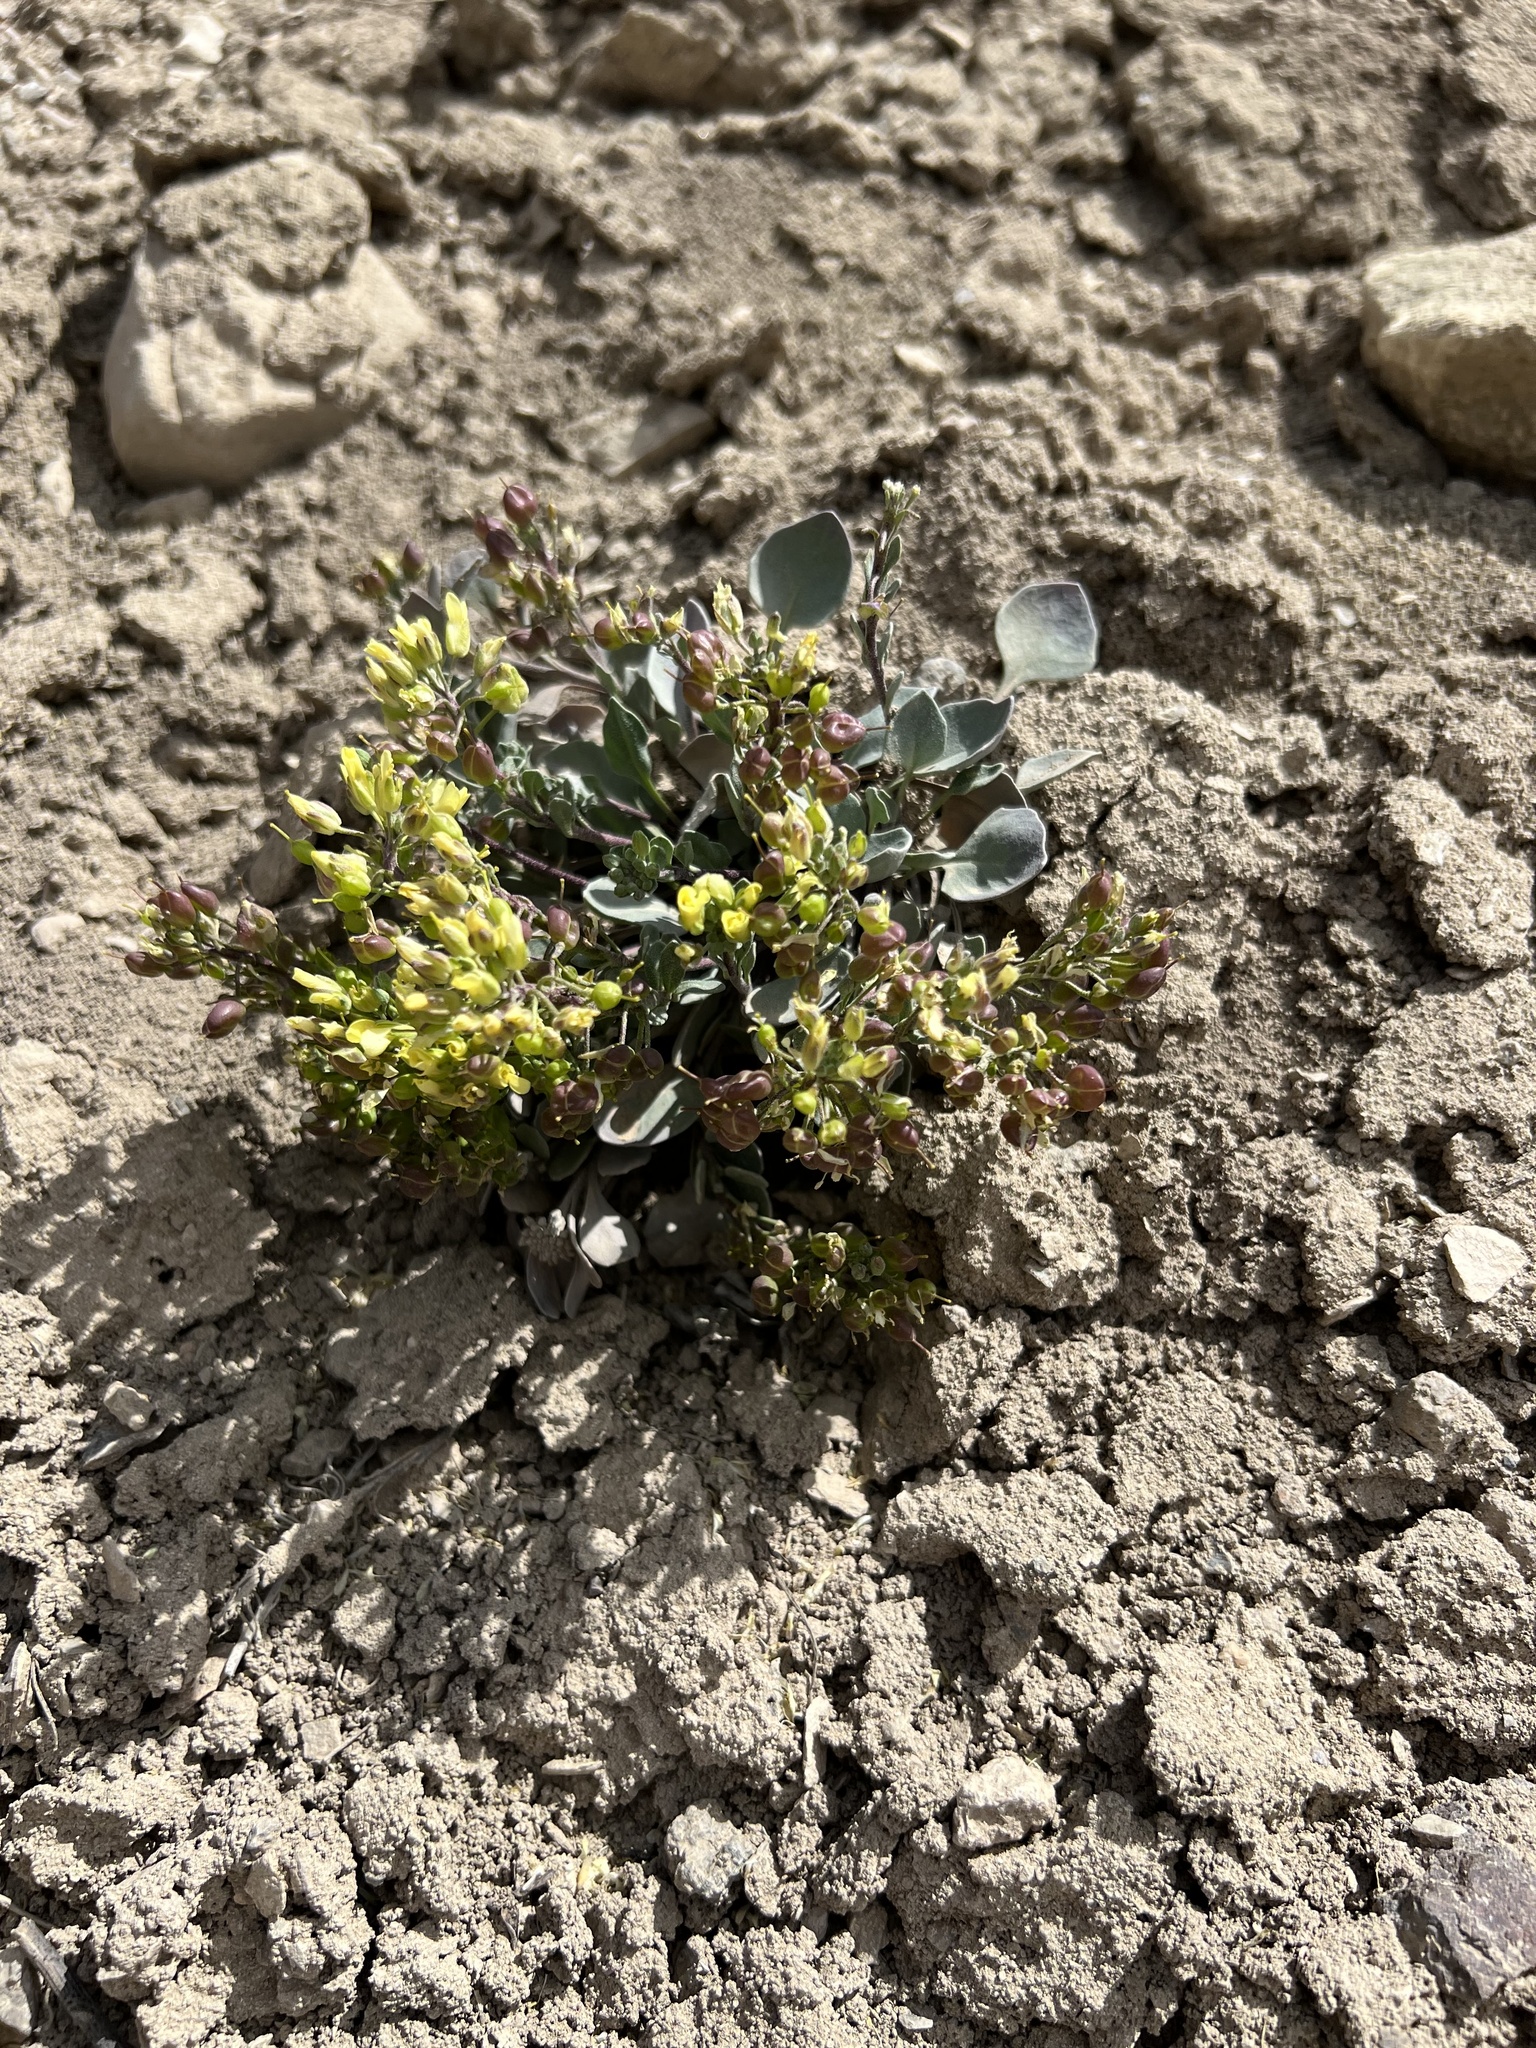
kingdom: Plantae
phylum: Tracheophyta
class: Magnoliopsida
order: Brassicales
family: Brassicaceae
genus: Physaria
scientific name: Physaria pruinosa
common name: Pagosa bladderpod
